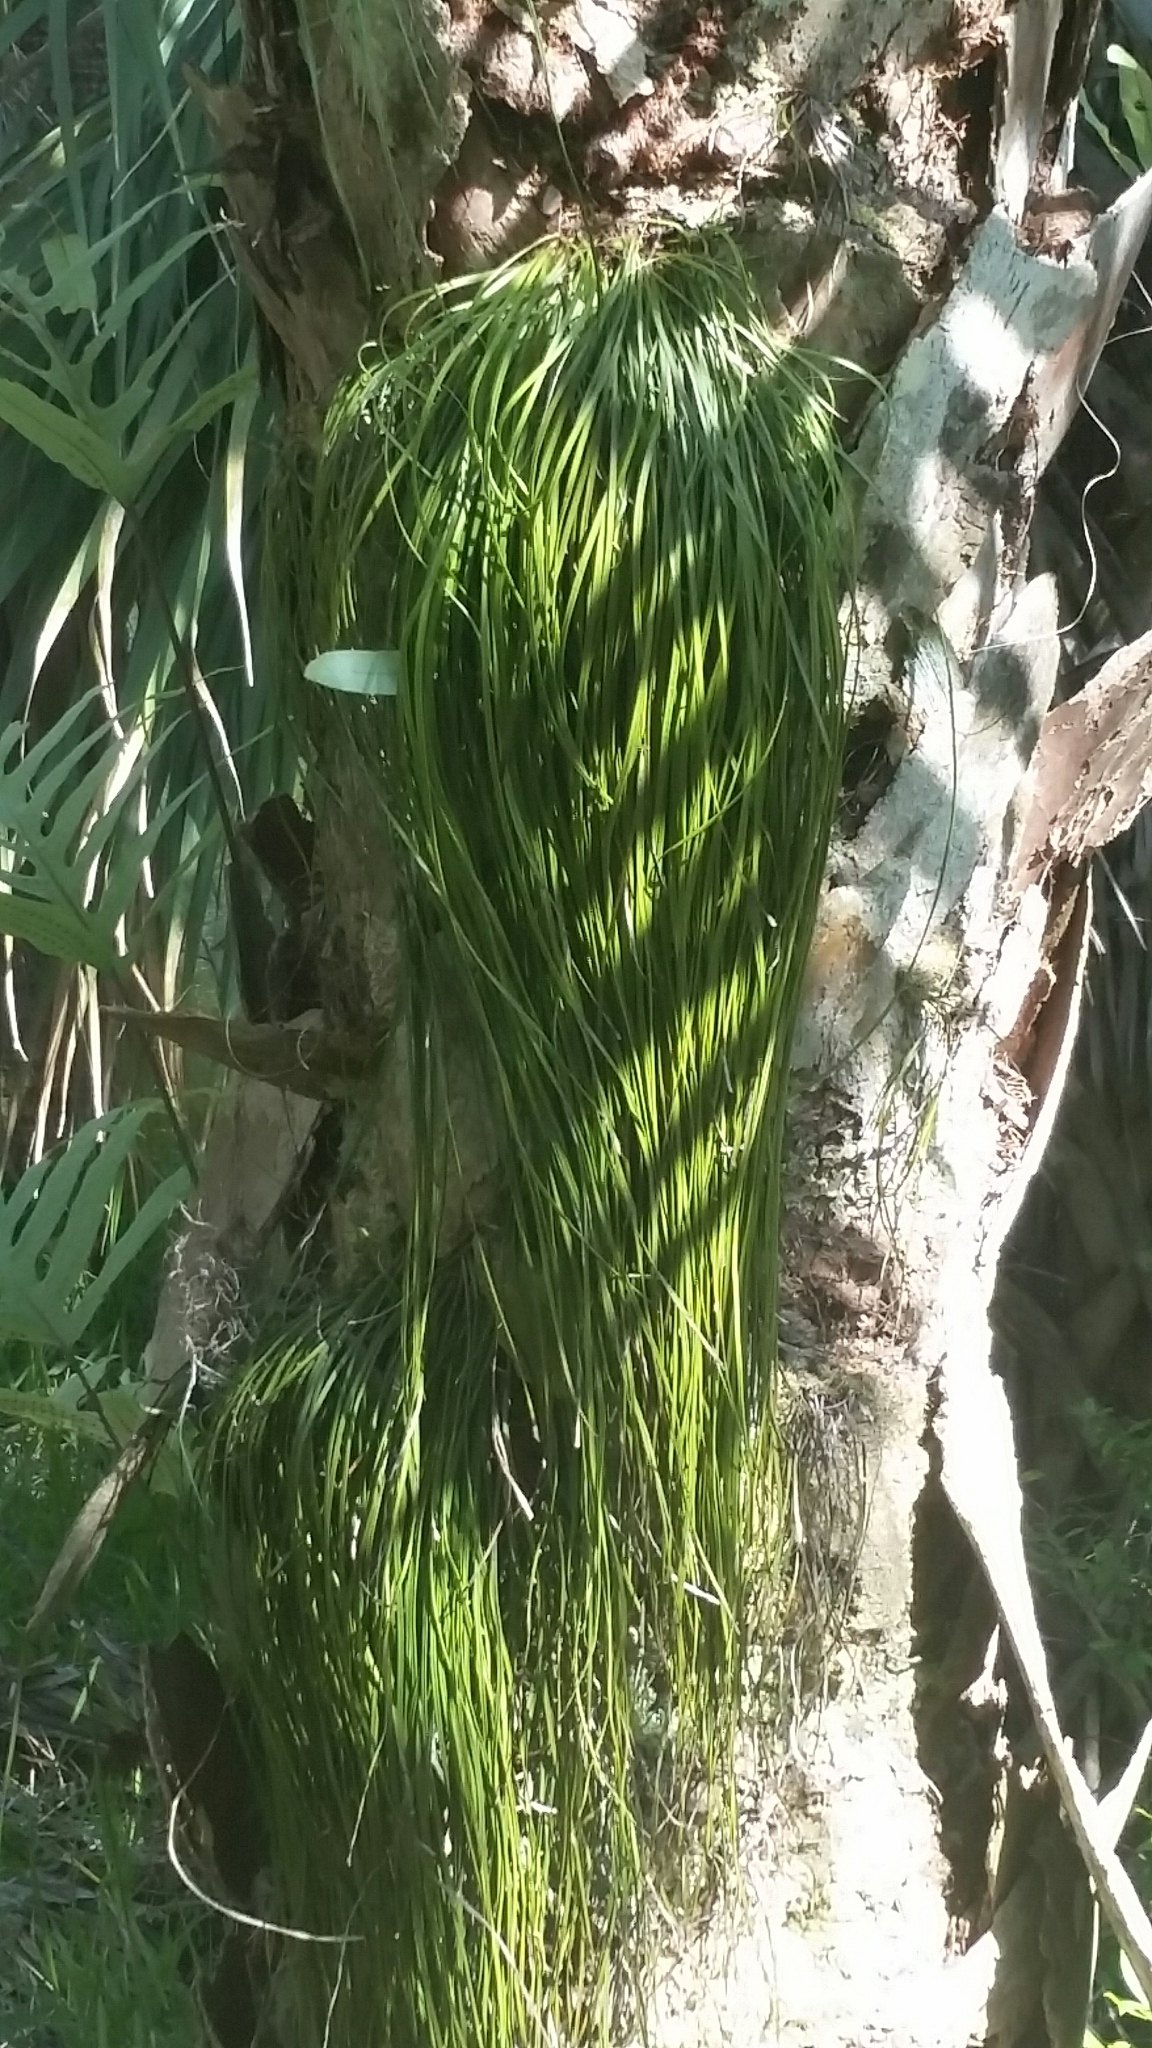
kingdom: Plantae
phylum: Tracheophyta
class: Polypodiopsida
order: Polypodiales
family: Pteridaceae
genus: Vittaria
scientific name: Vittaria lineata
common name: Shoestring fern
